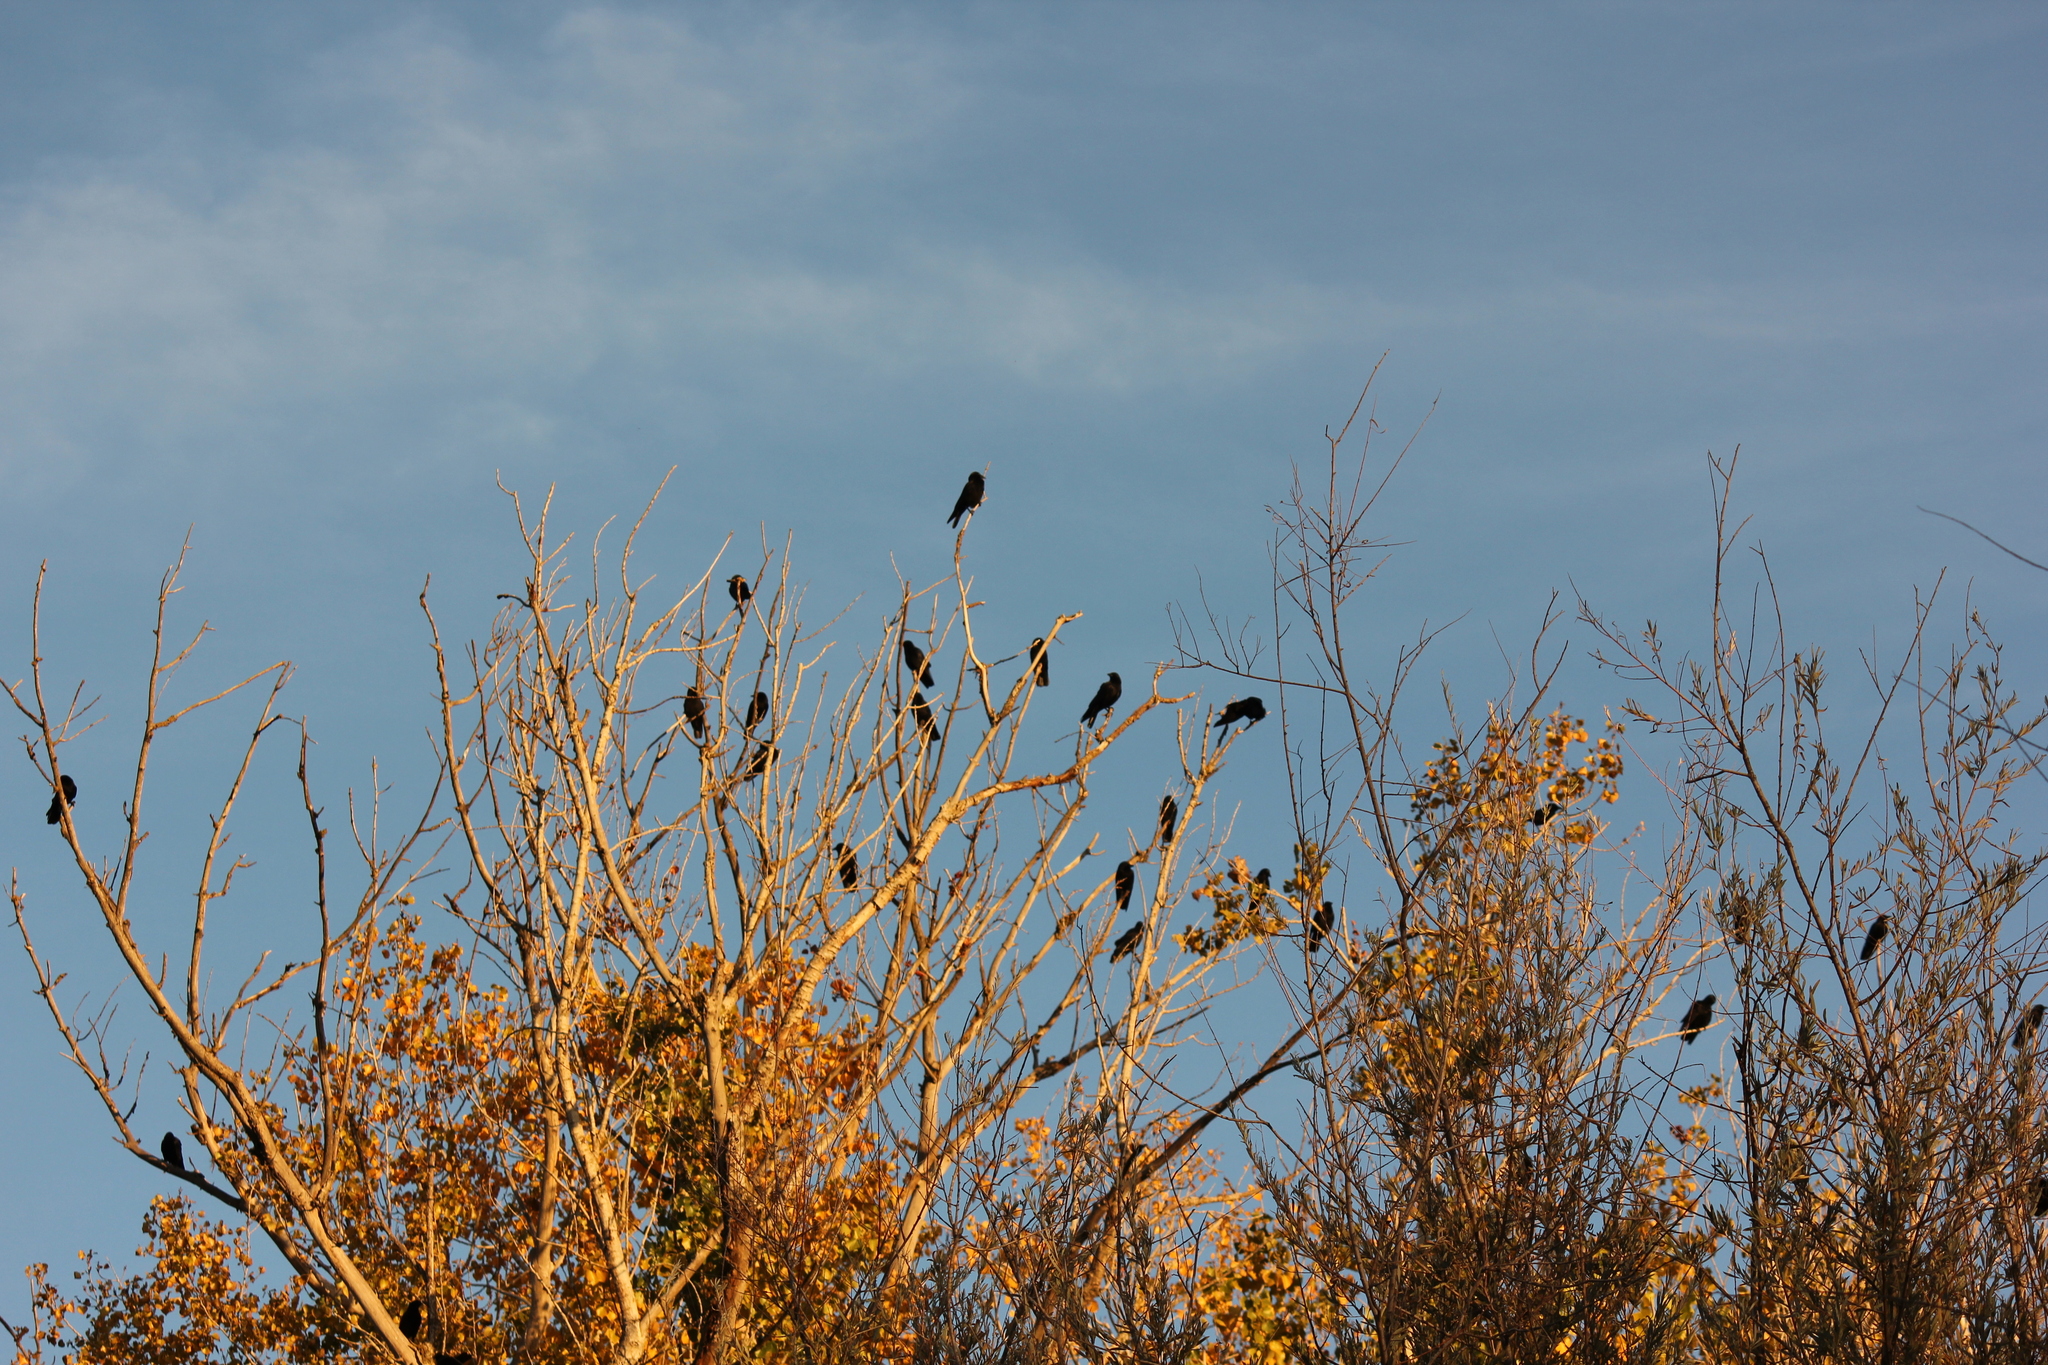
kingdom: Animalia
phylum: Chordata
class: Aves
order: Passeriformes
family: Corvidae
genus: Corvus
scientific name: Corvus brachyrhynchos
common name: American crow
